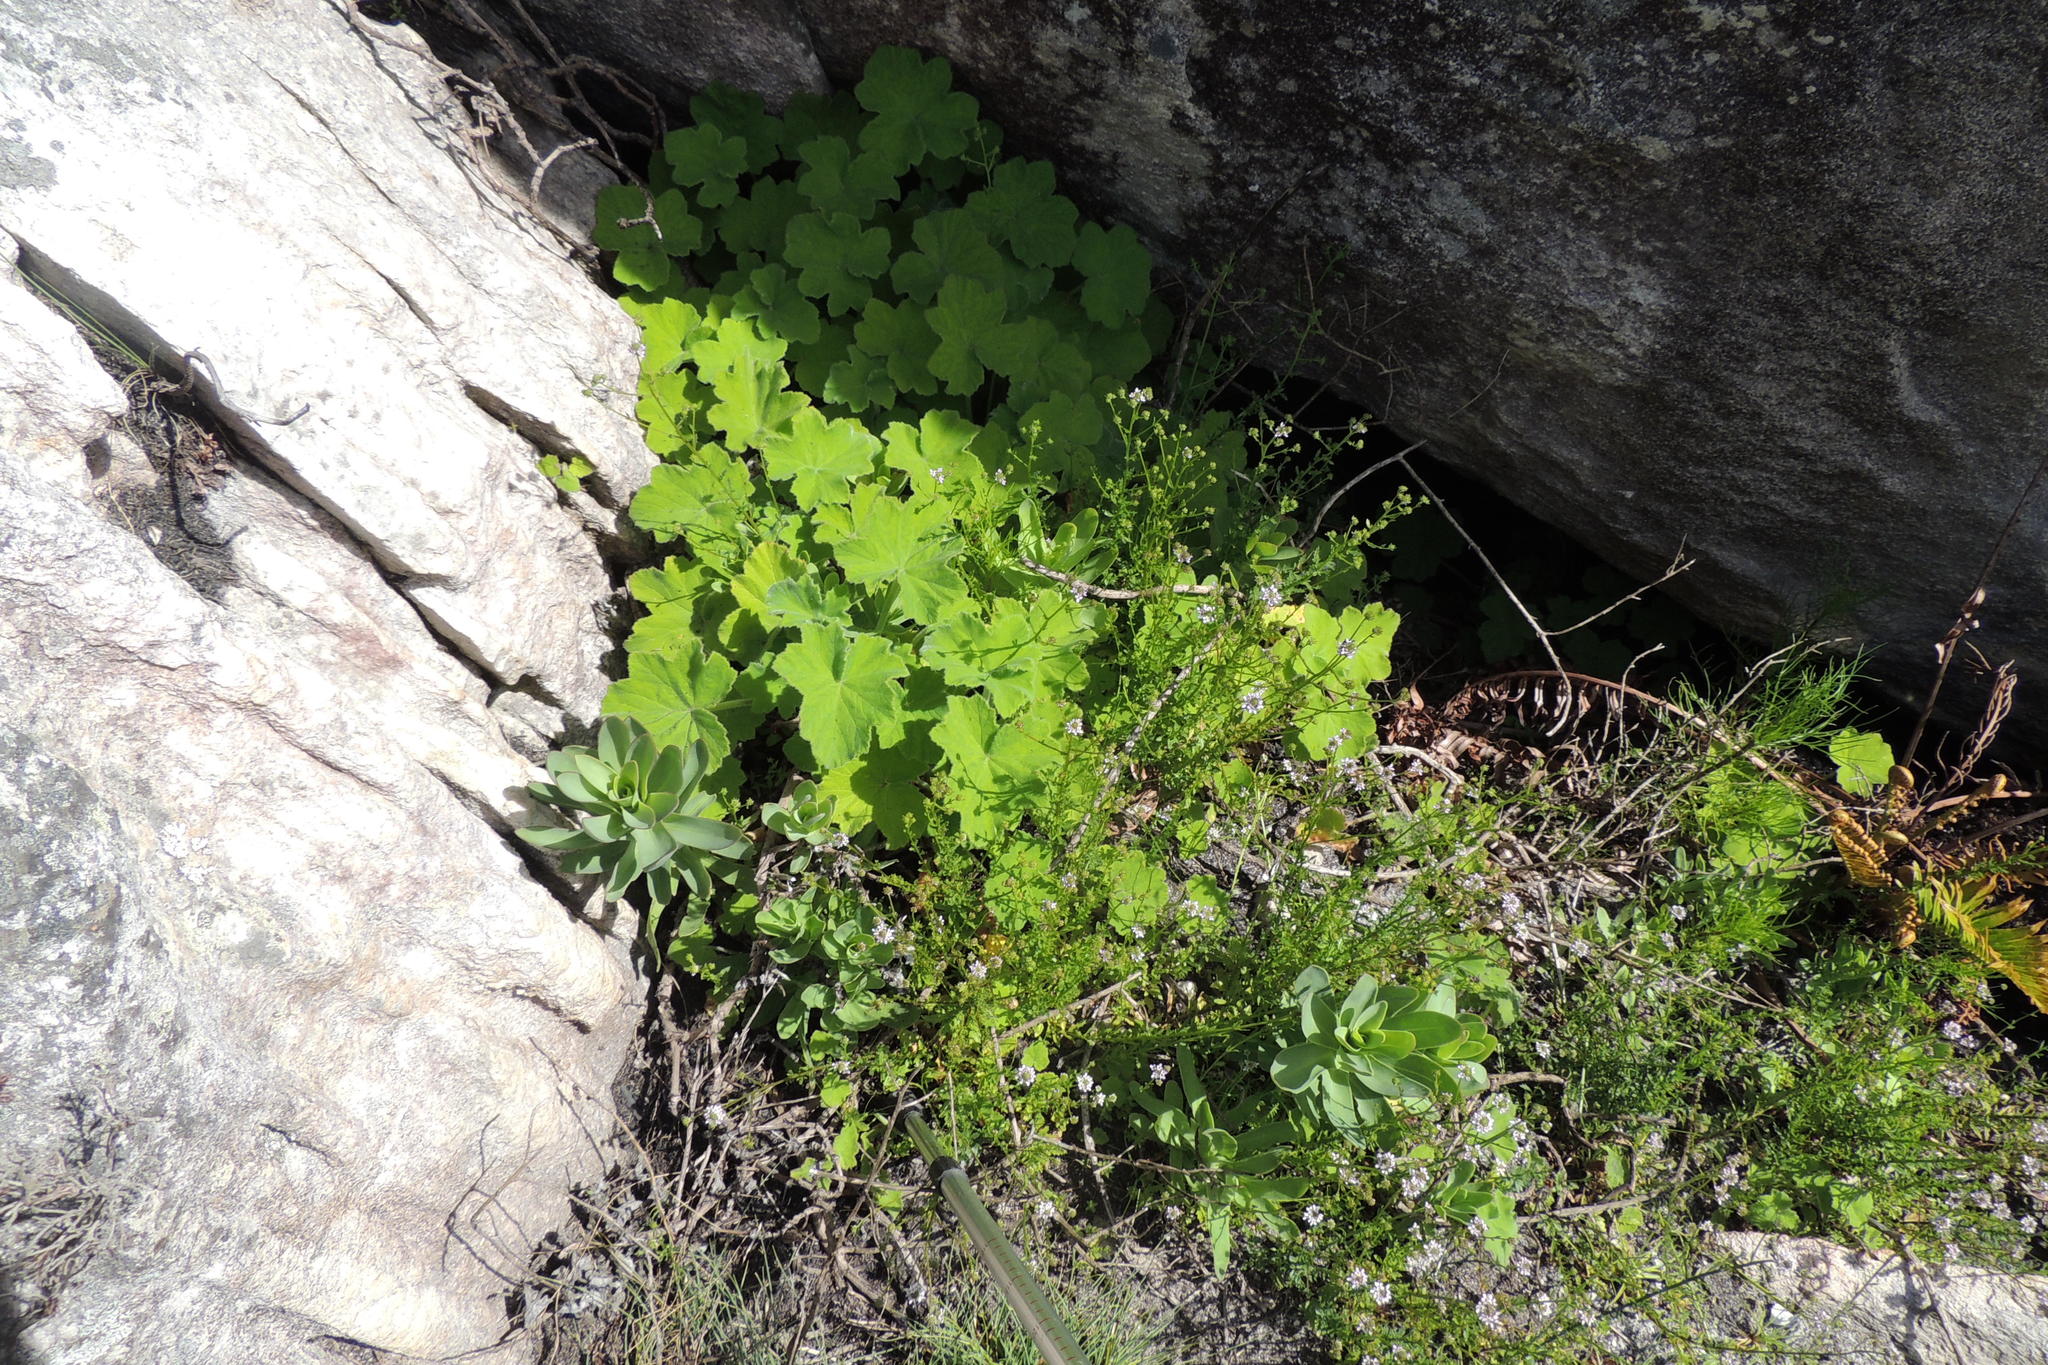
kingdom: Plantae
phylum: Tracheophyta
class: Magnoliopsida
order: Geraniales
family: Geraniaceae
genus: Pelargonium
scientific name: Pelargonium tomentosum
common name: Peppermint-scented geranium
